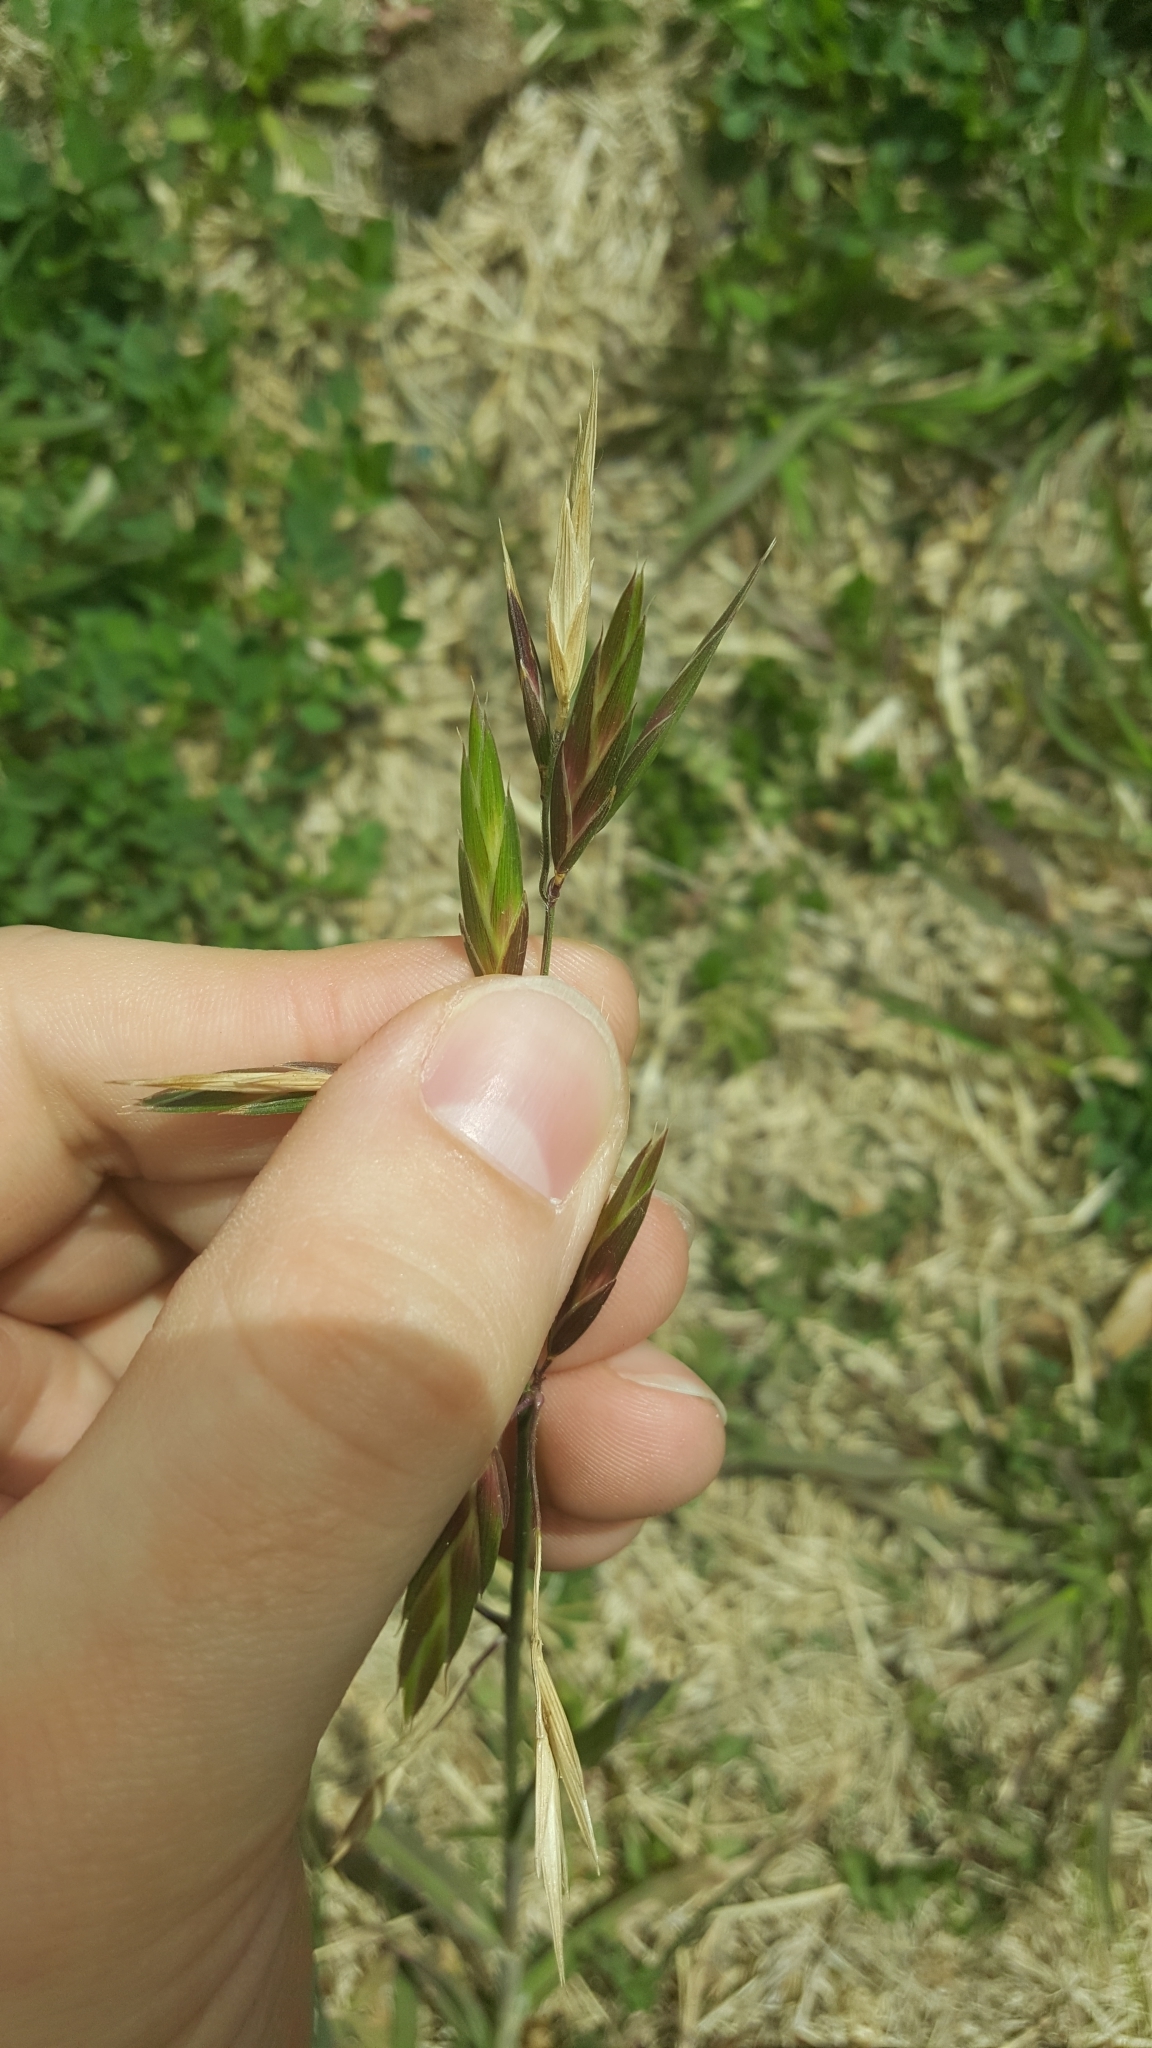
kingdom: Plantae
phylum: Tracheophyta
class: Liliopsida
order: Poales
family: Poaceae
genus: Bromus
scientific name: Bromus catharticus
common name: Rescuegrass
